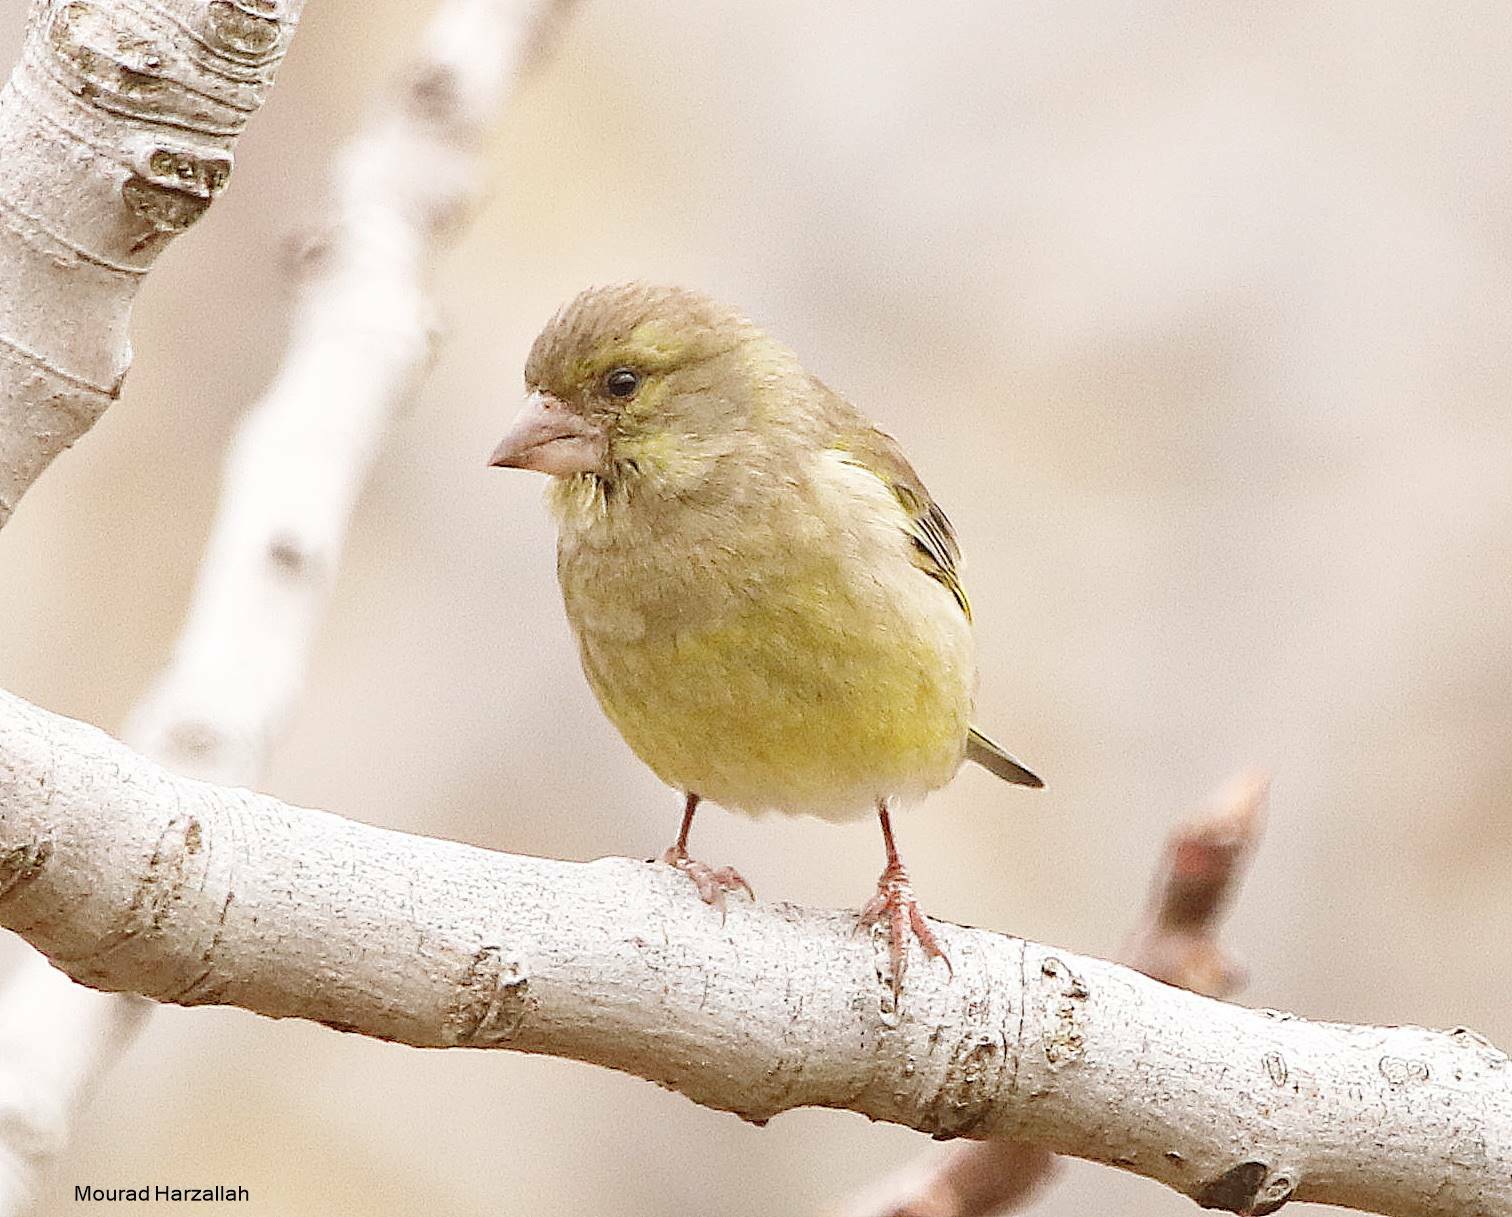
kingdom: Plantae
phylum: Tracheophyta
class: Liliopsida
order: Poales
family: Poaceae
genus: Chloris
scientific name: Chloris chloris
